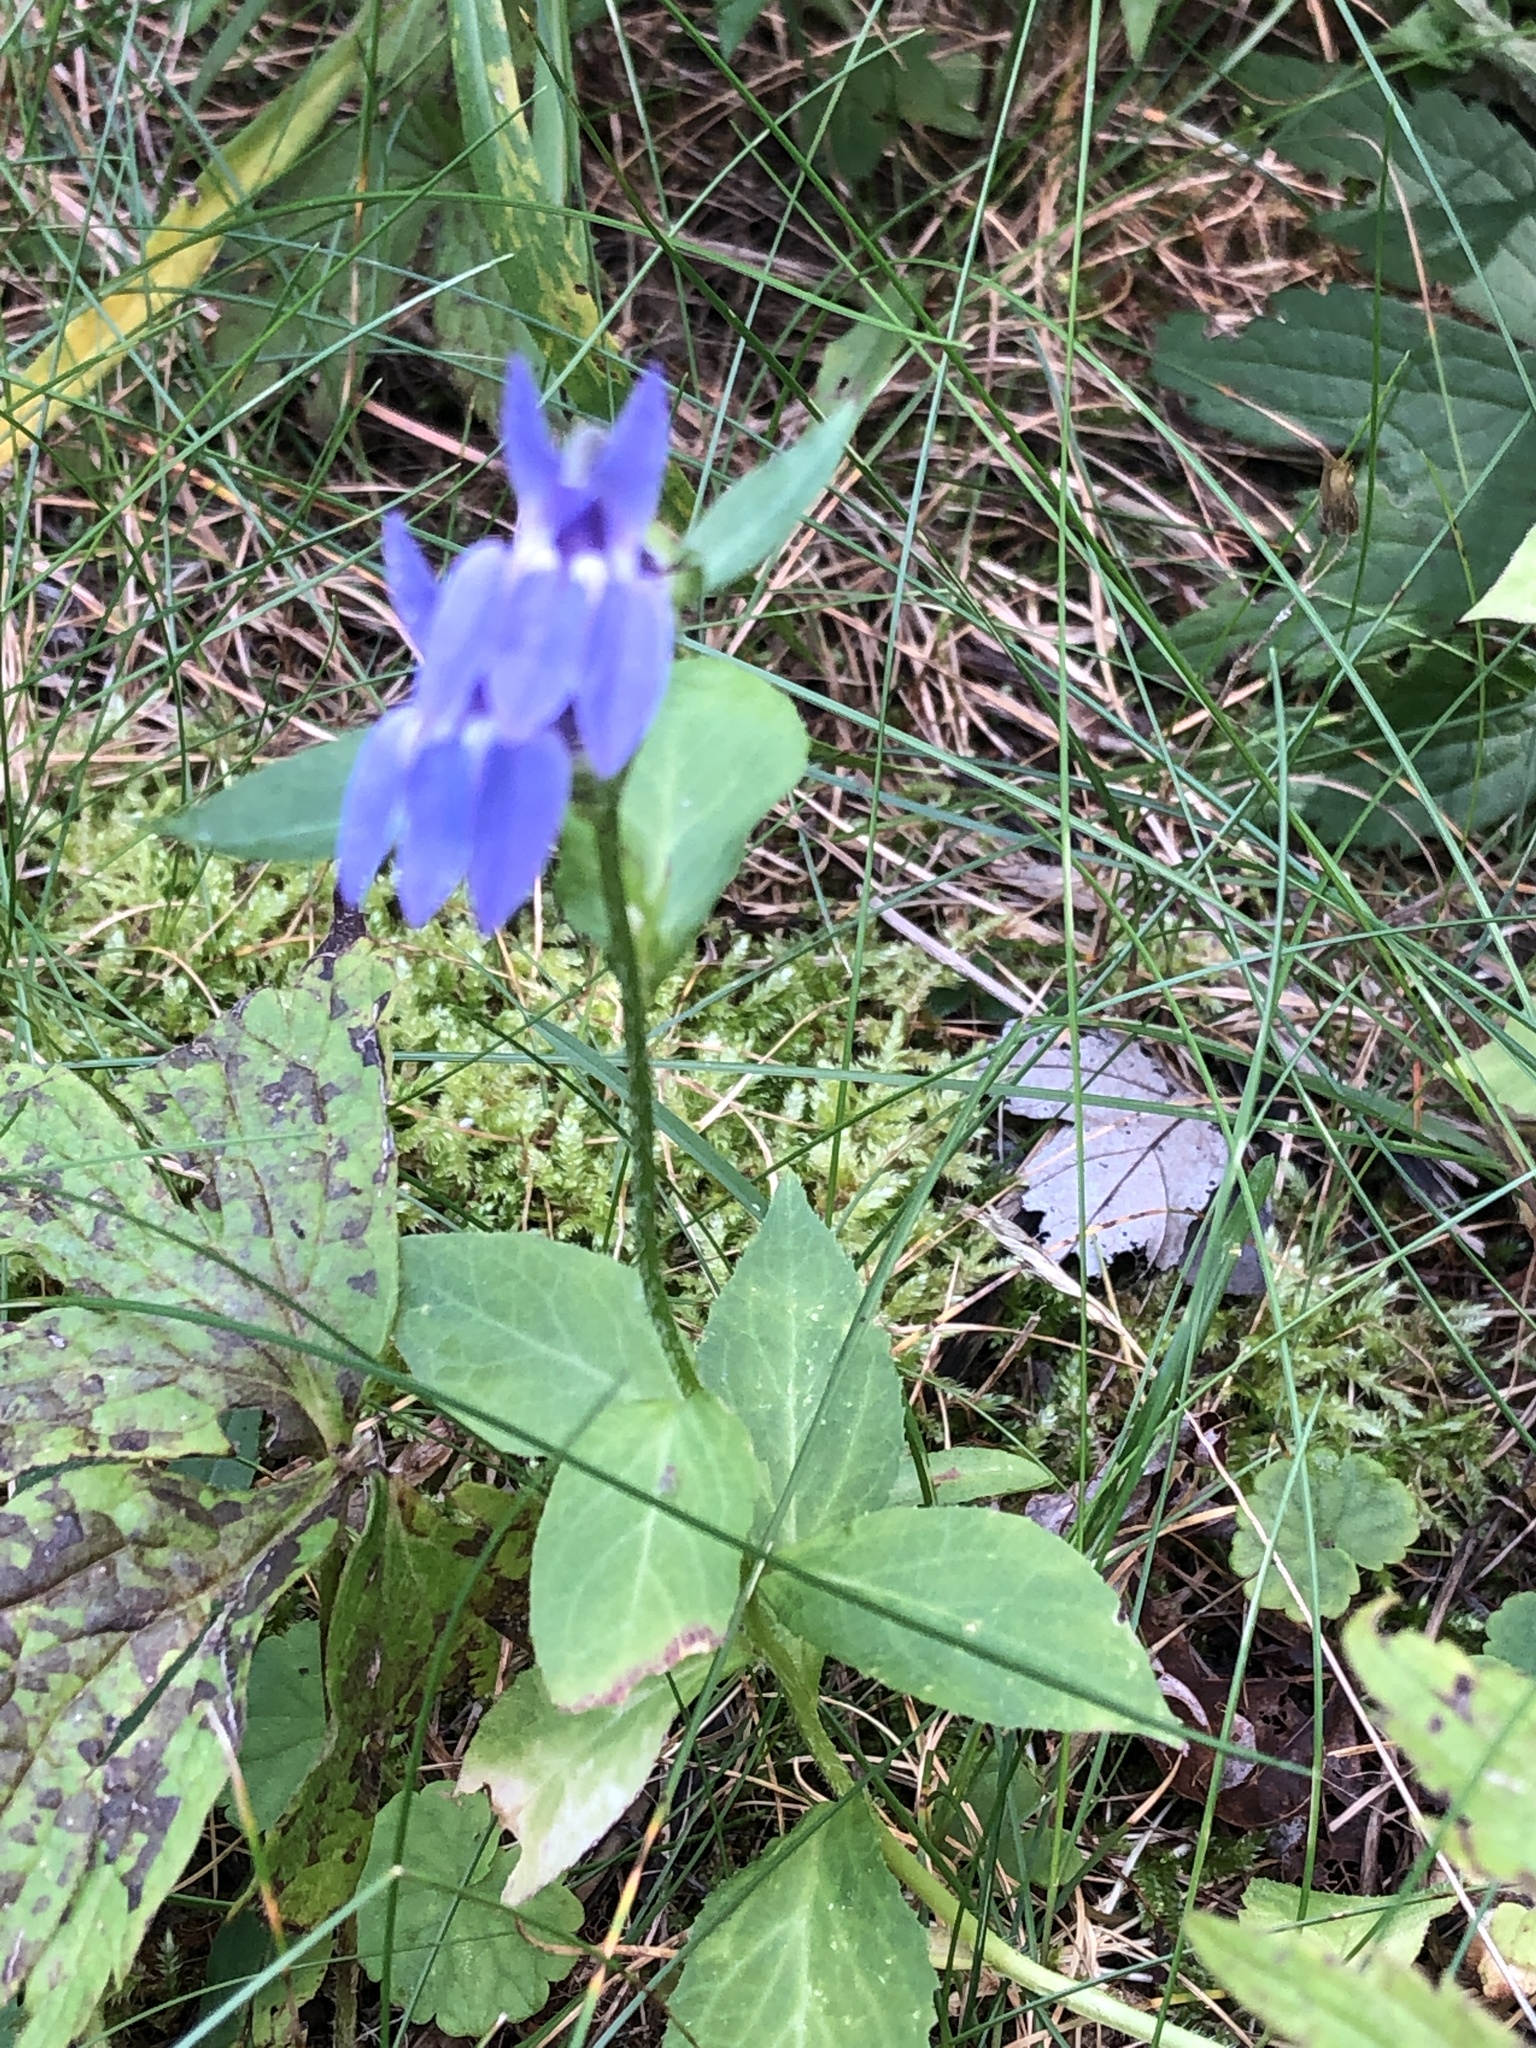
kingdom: Plantae
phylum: Tracheophyta
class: Magnoliopsida
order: Asterales
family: Campanulaceae
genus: Lobelia
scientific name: Lobelia siphilitica
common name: Great lobelia
